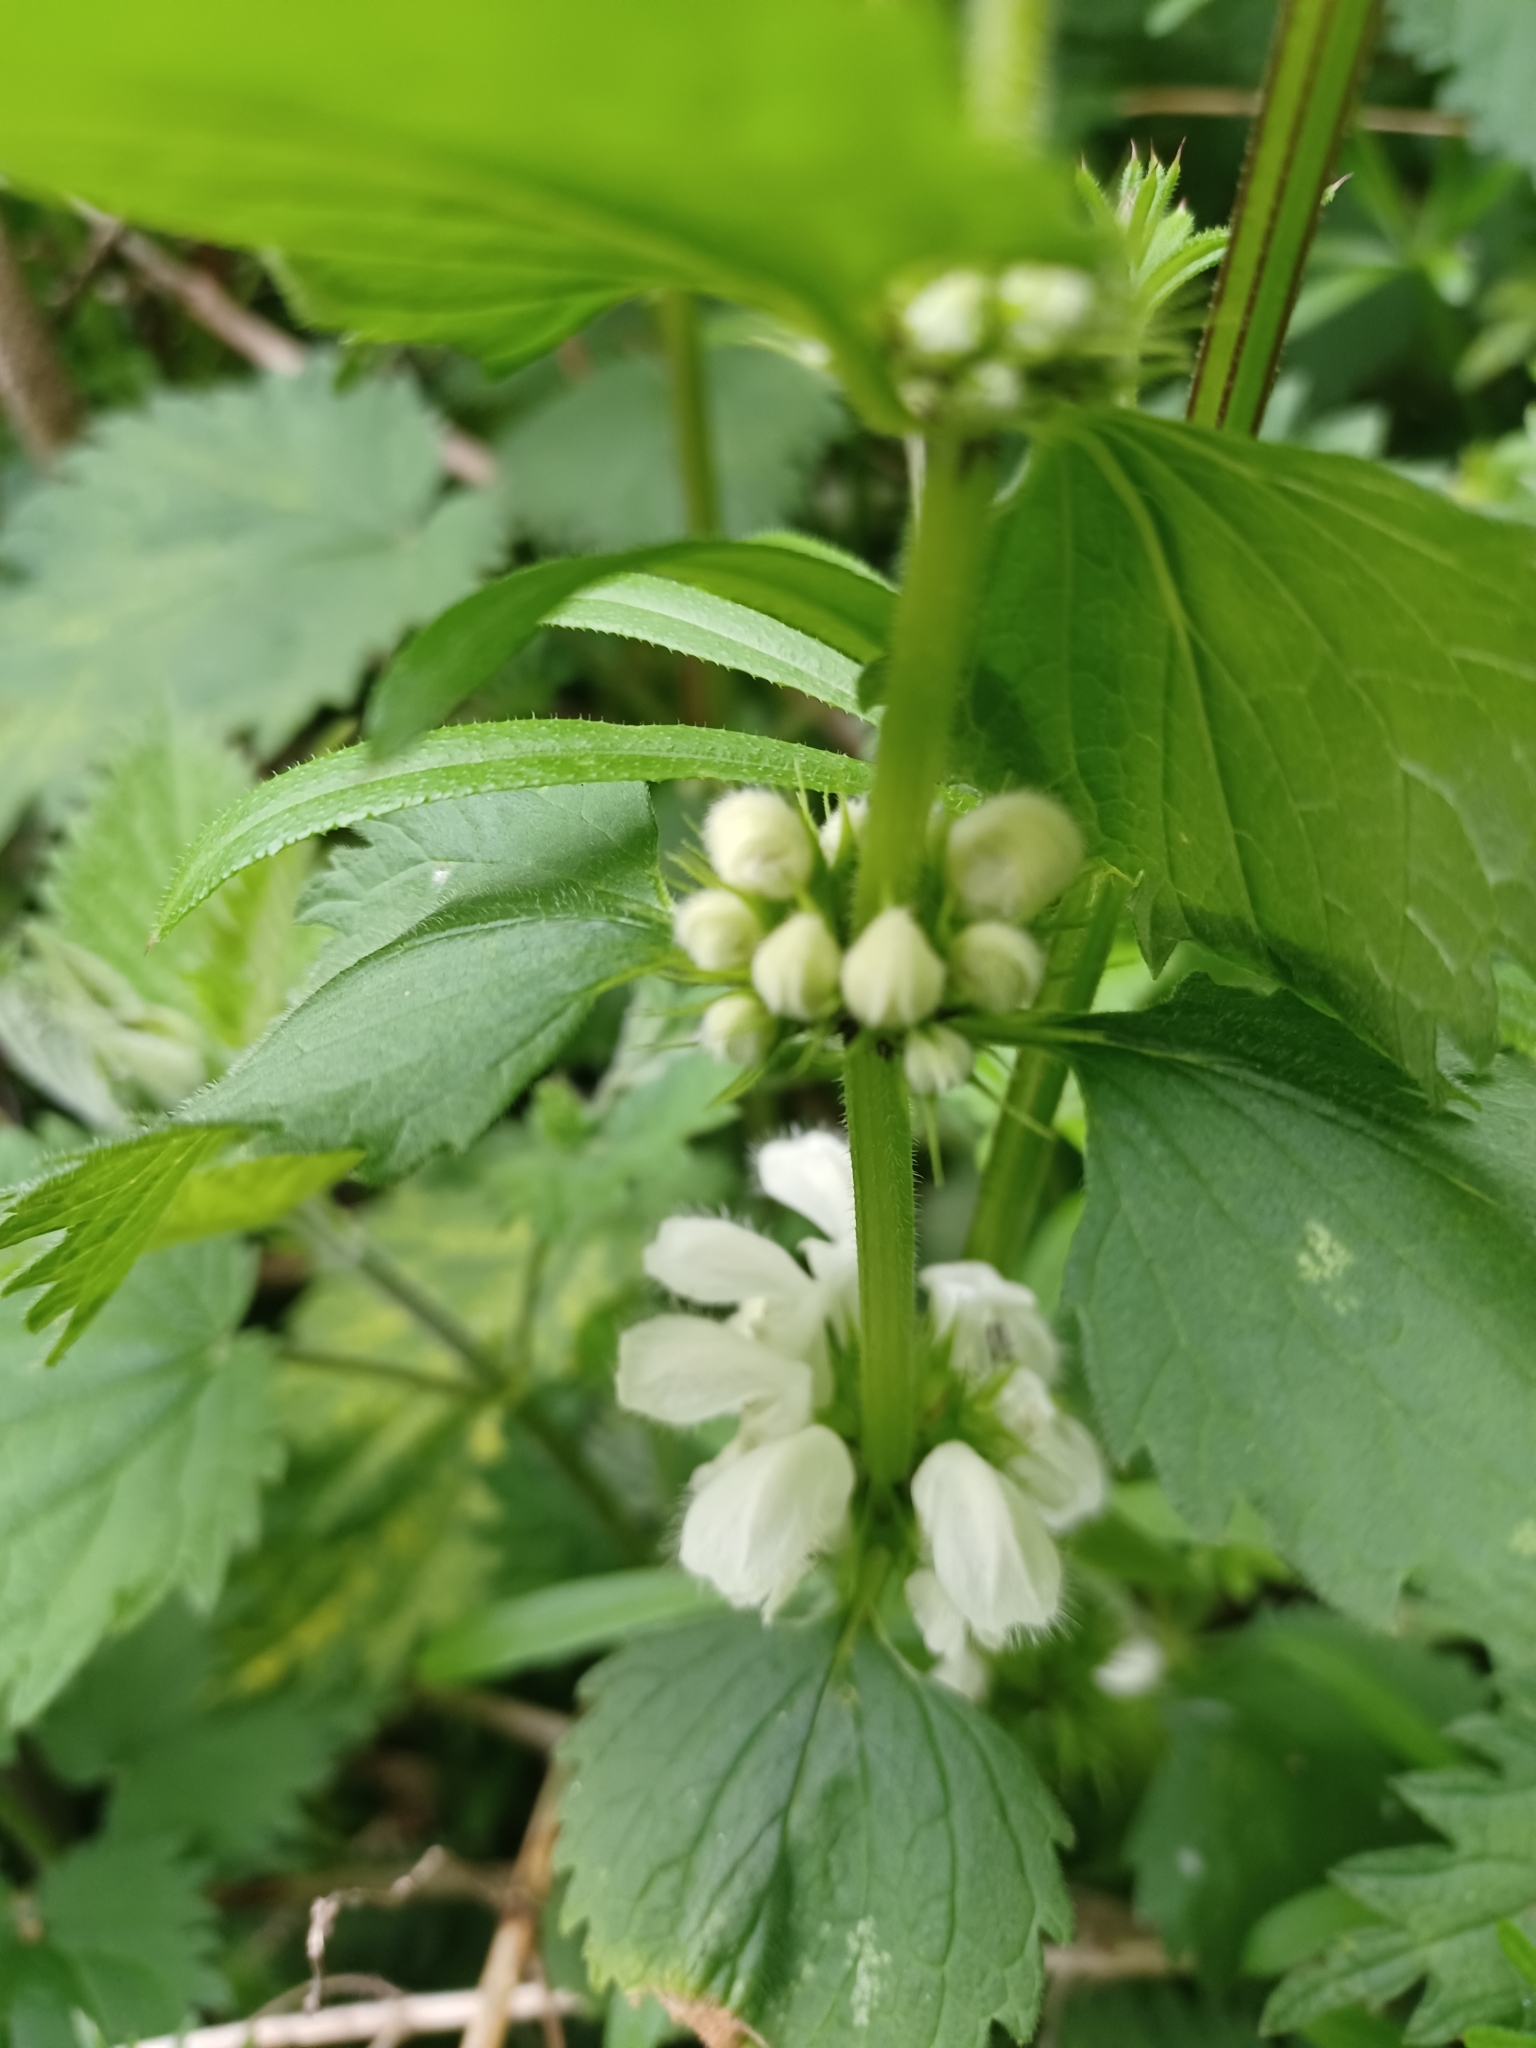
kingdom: Plantae
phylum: Tracheophyta
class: Magnoliopsida
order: Lamiales
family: Lamiaceae
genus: Lamium
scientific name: Lamium album
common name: White dead-nettle
